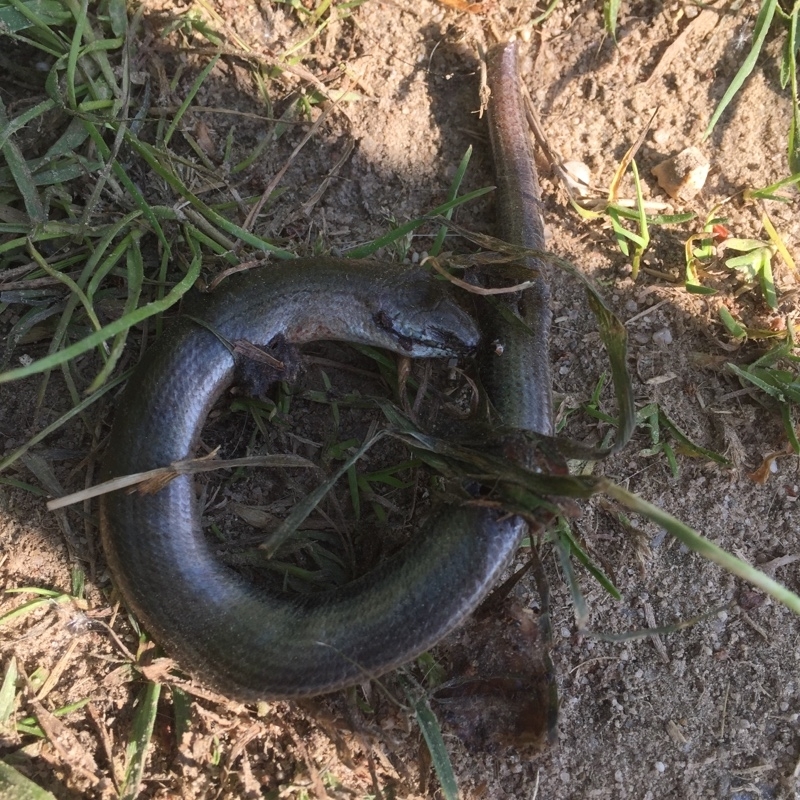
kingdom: Animalia
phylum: Chordata
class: Squamata
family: Anguidae
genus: Anguis
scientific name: Anguis fragilis
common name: Slow worm
